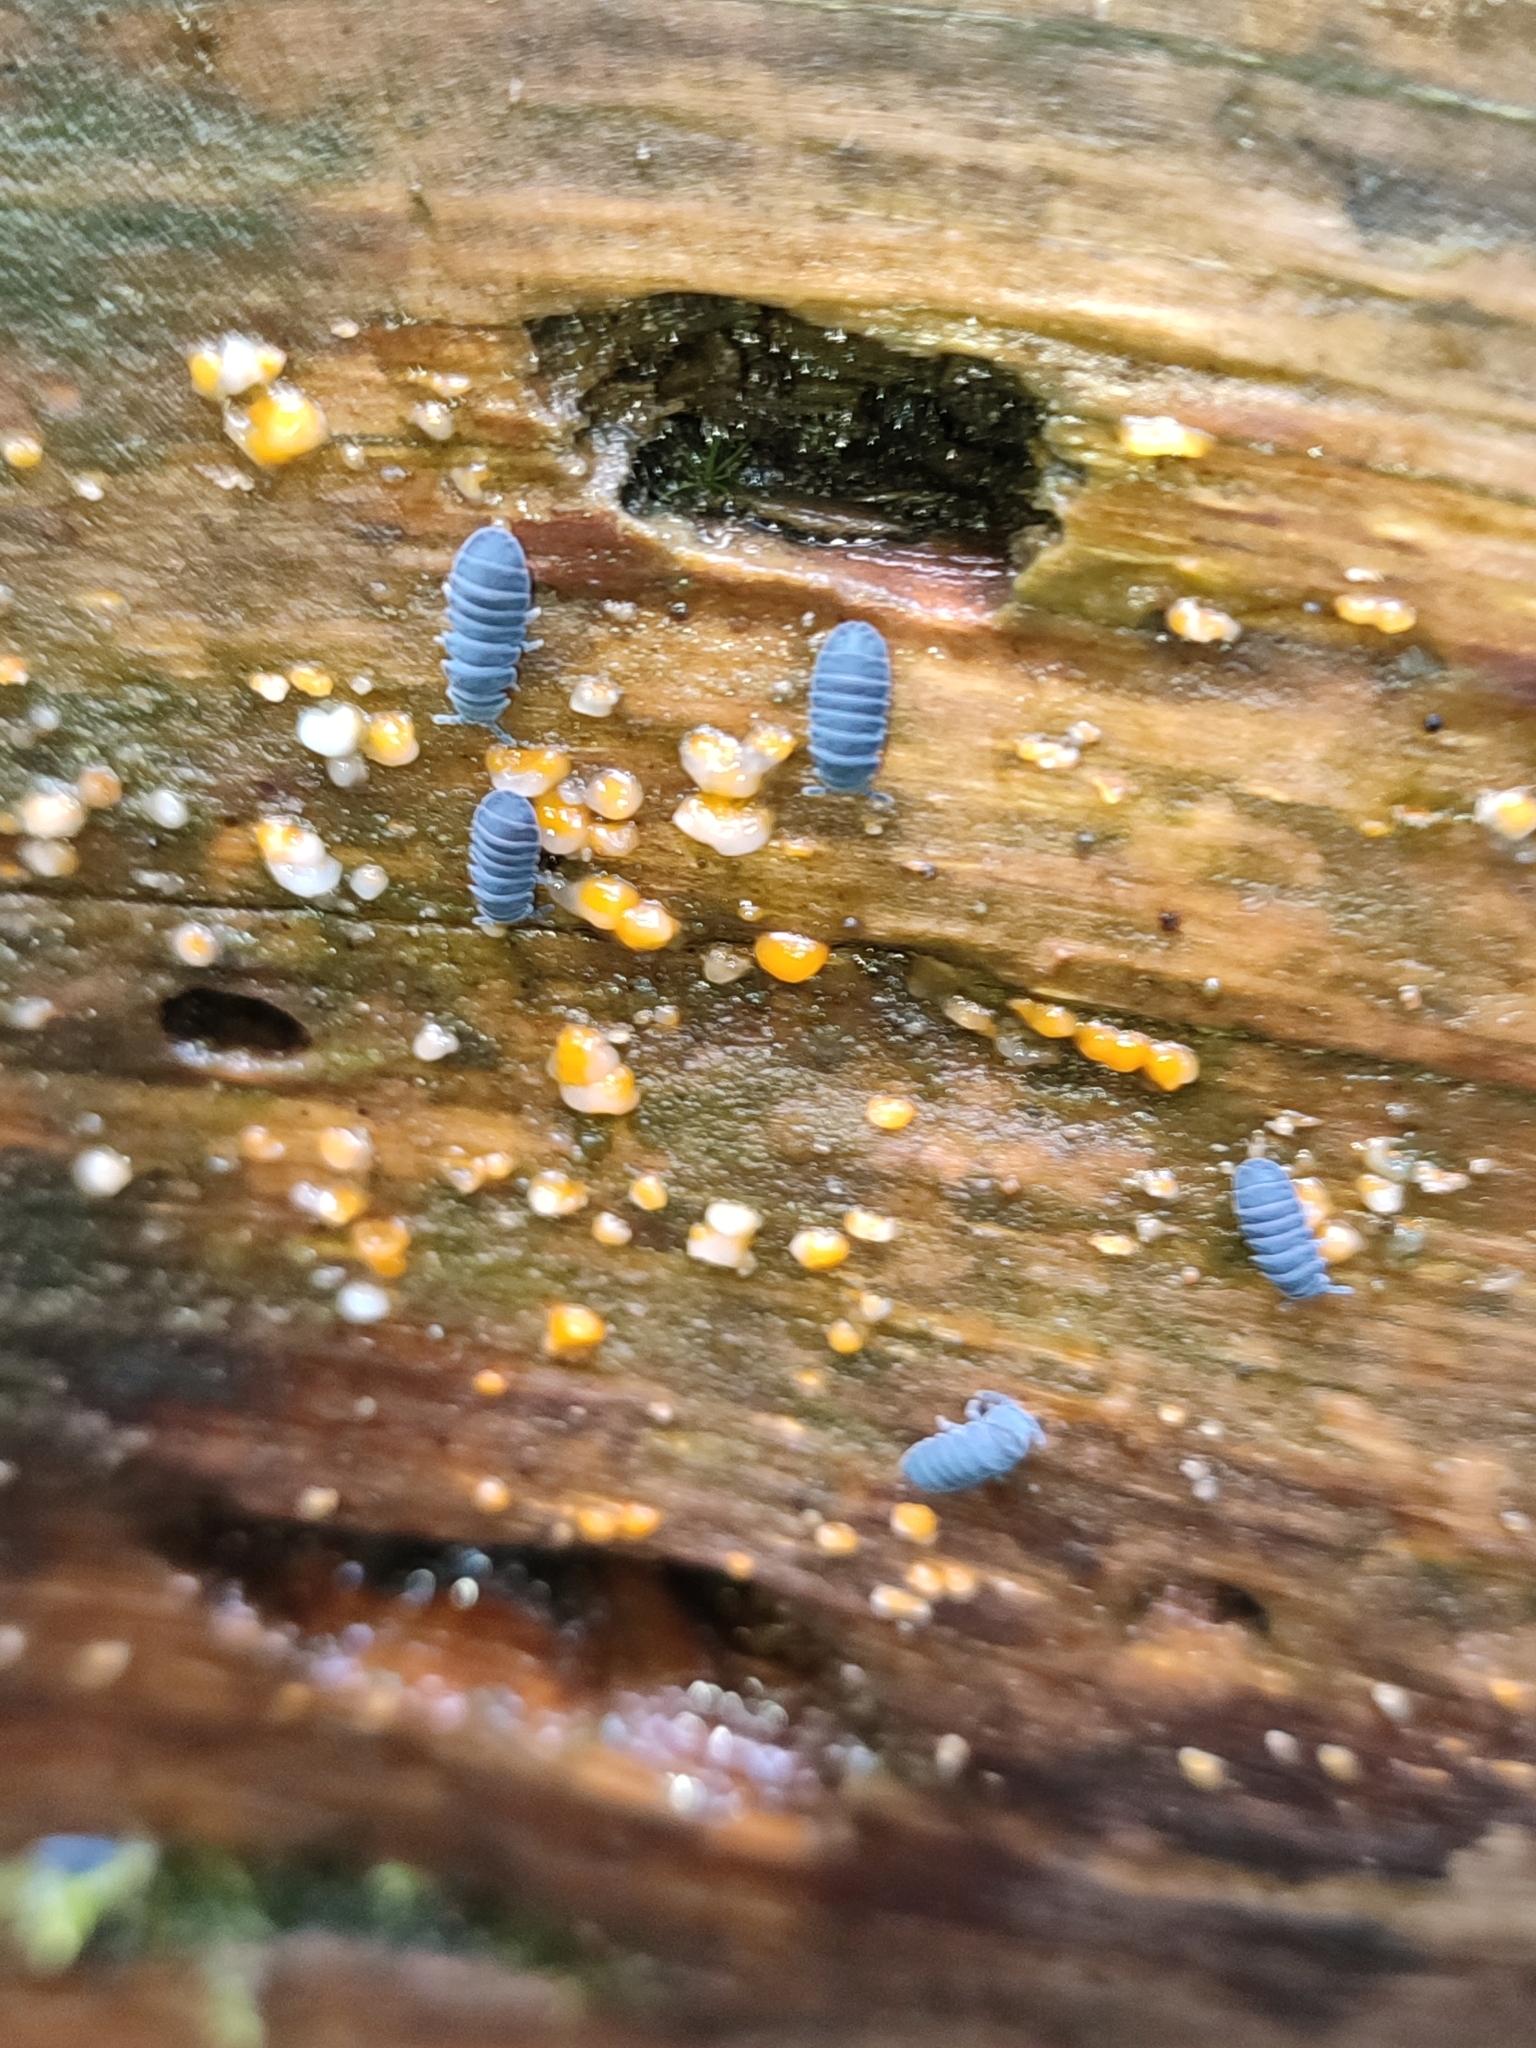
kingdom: Animalia
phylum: Arthropoda
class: Collembola
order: Poduromorpha
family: Onychiuridae
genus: Tetrodontophora
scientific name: Tetrodontophora bielanensis
